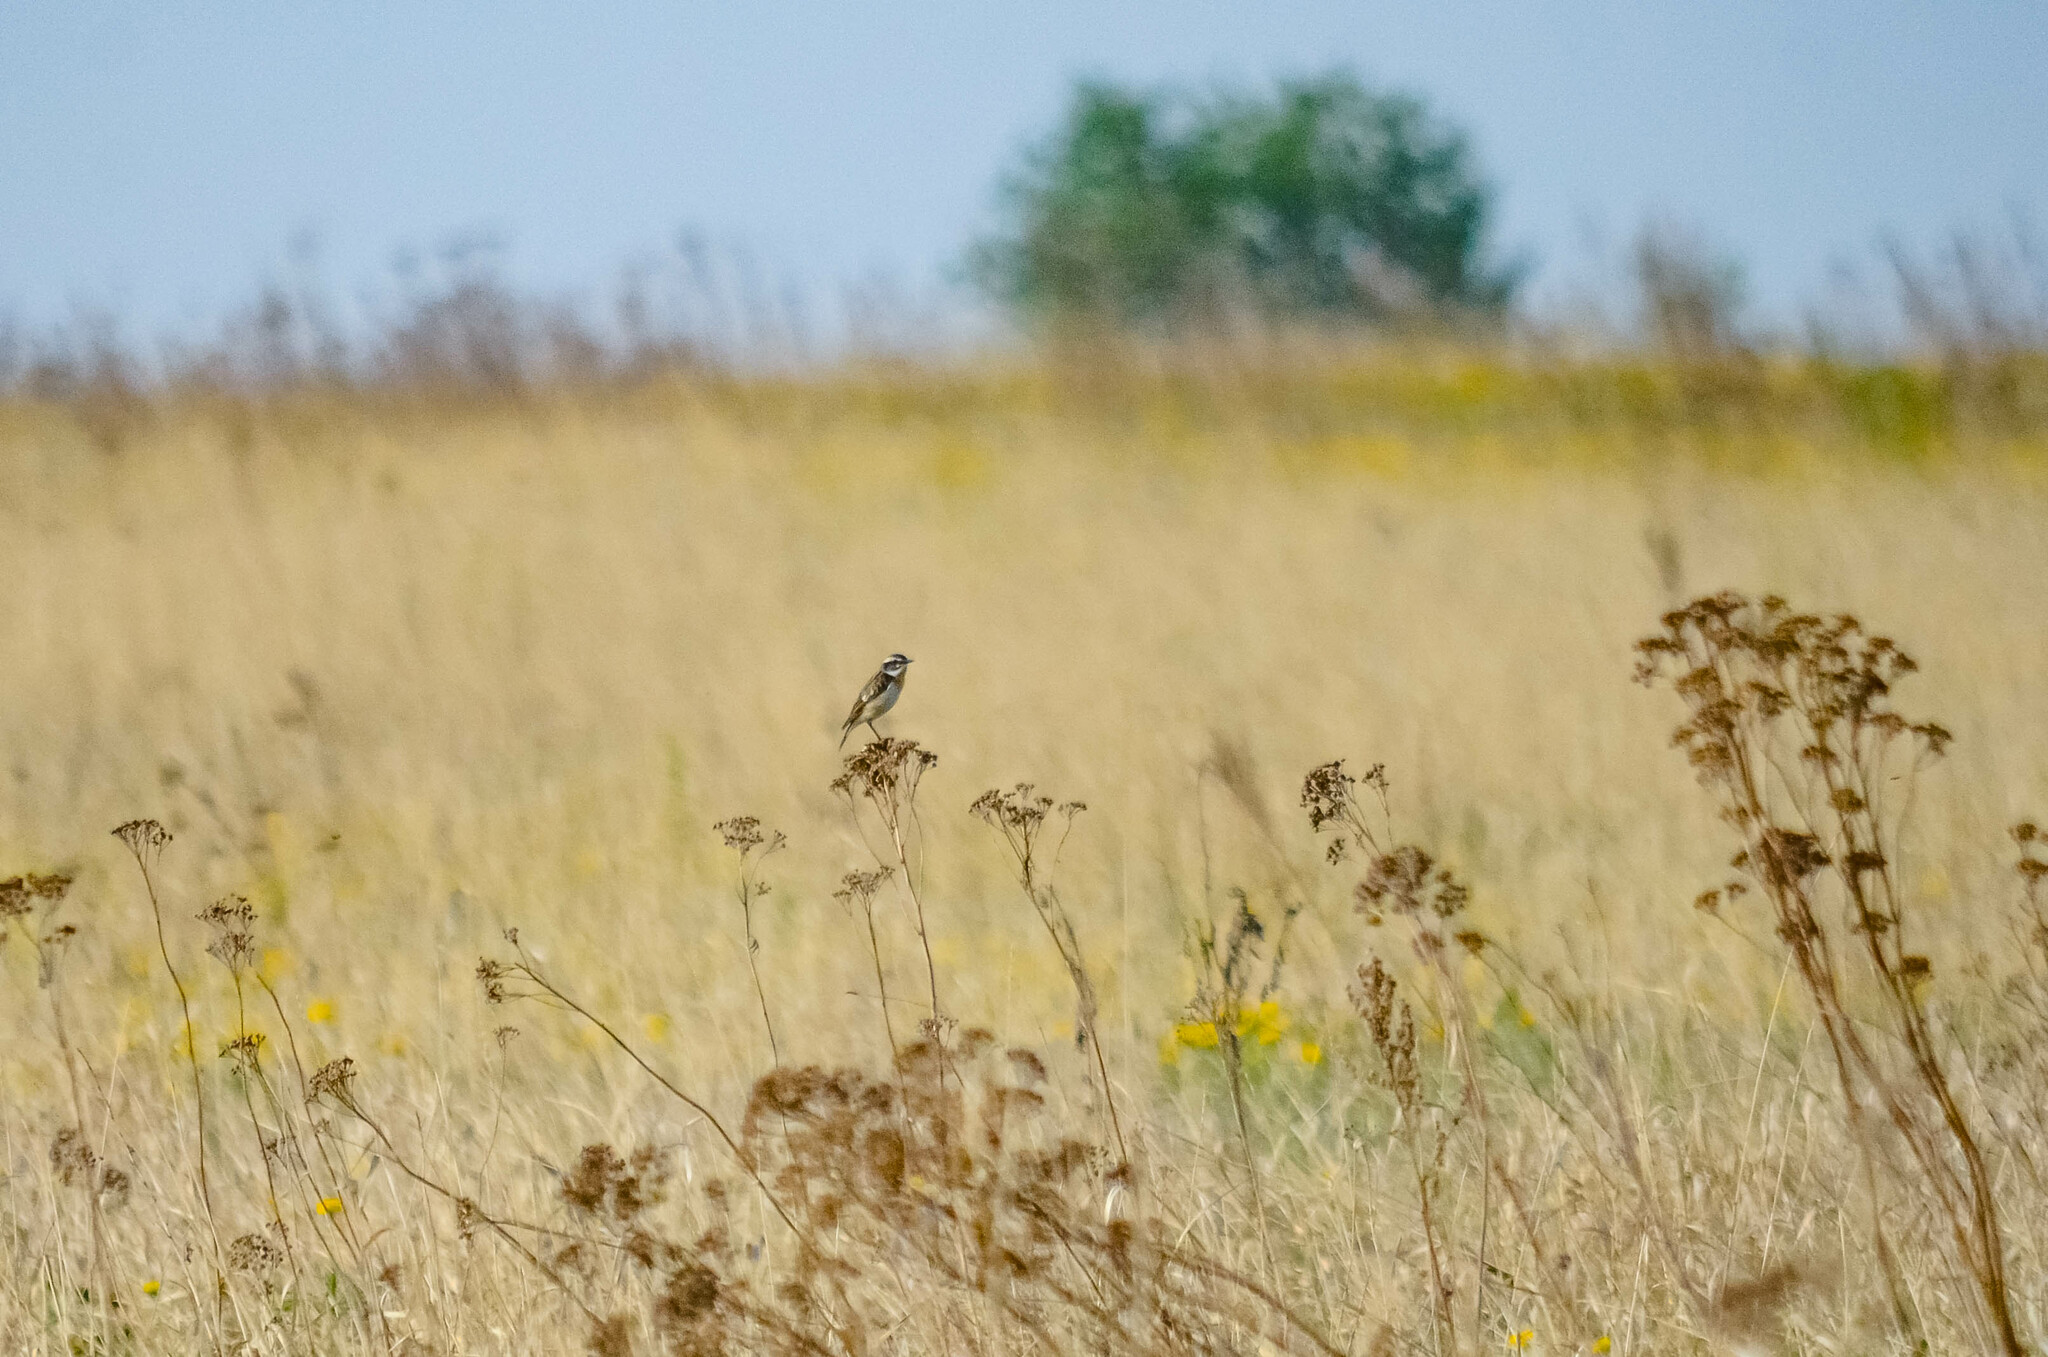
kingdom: Animalia
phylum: Chordata
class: Aves
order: Passeriformes
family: Muscicapidae
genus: Saxicola
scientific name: Saxicola rubetra
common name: Whinchat
